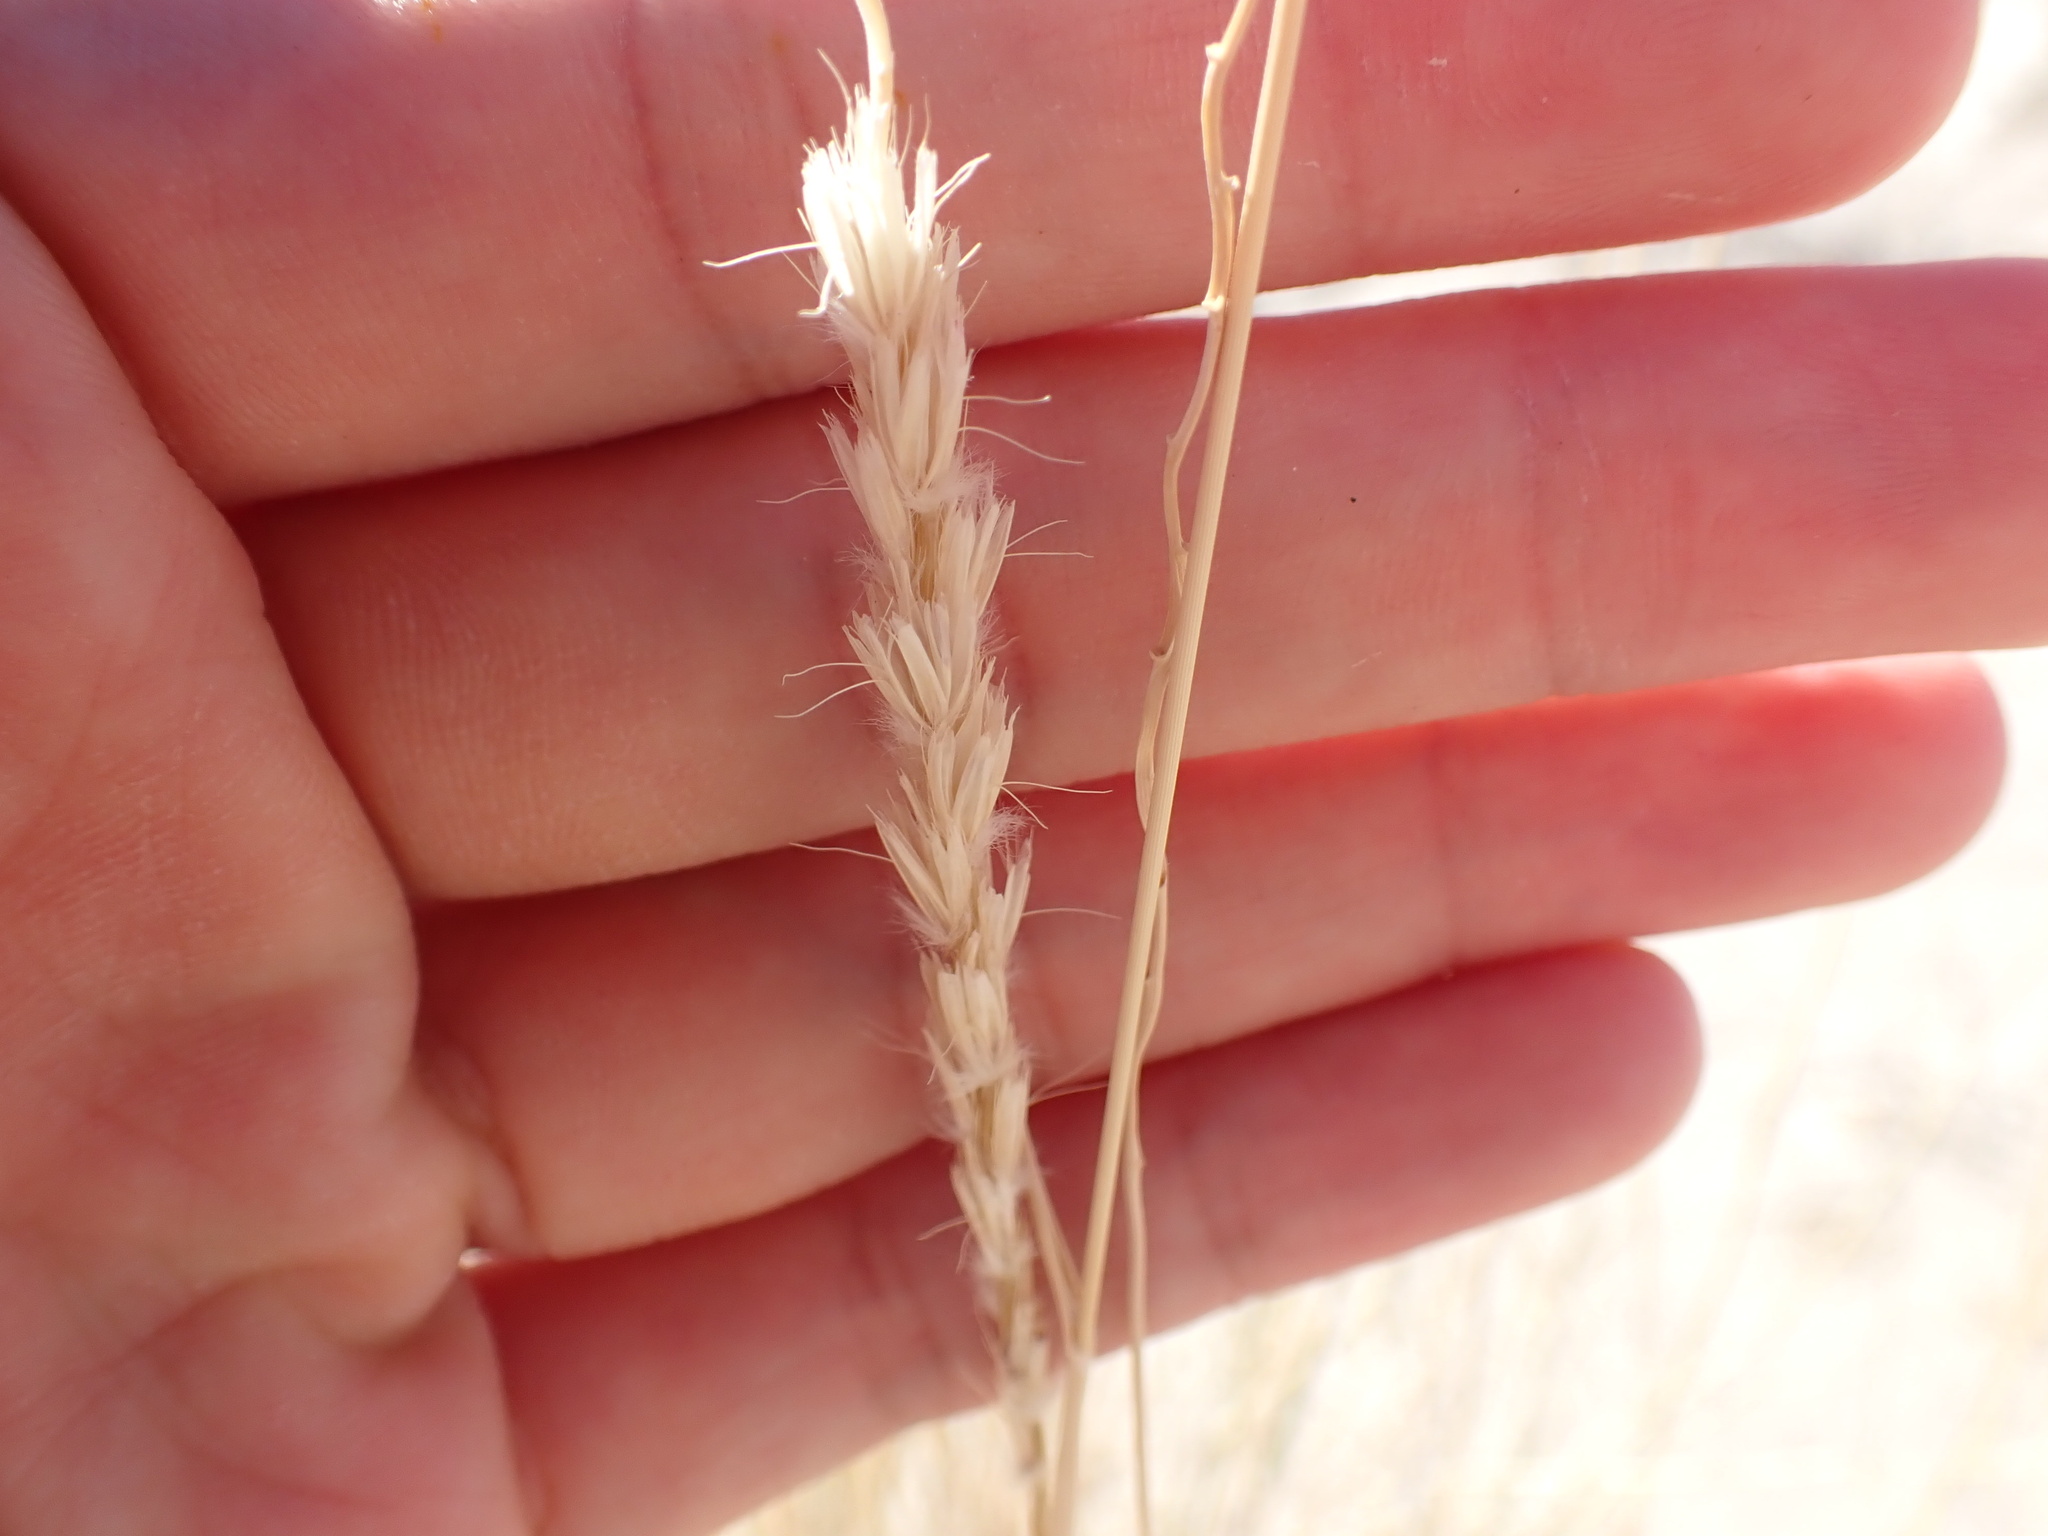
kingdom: Plantae
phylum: Tracheophyta
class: Liliopsida
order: Poales
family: Poaceae
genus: Hilaria
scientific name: Hilaria rigida
